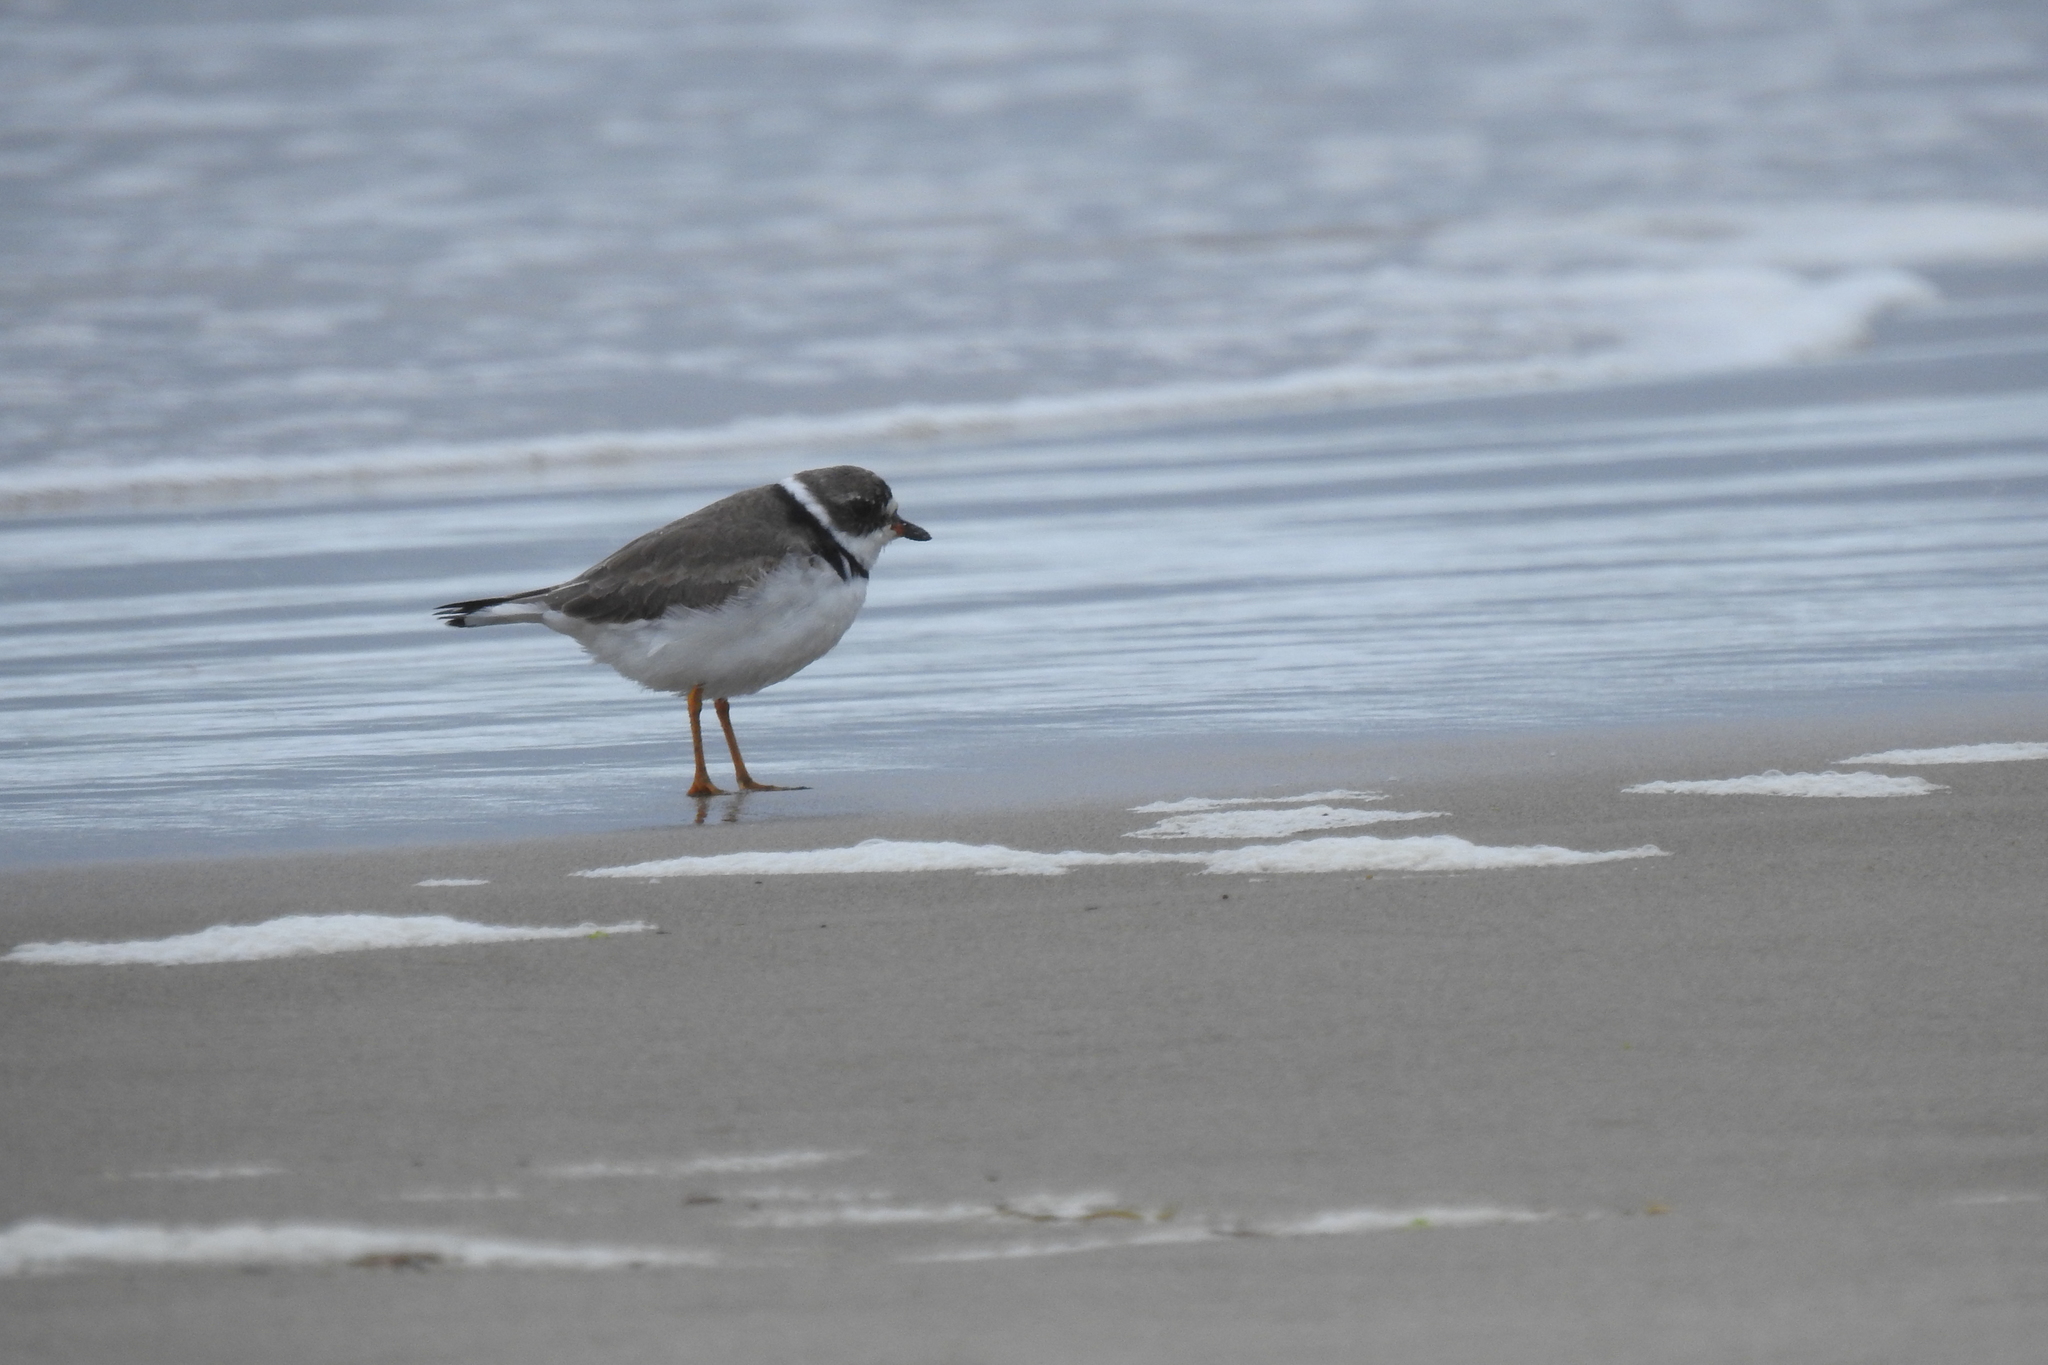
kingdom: Animalia
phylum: Chordata
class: Aves
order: Charadriiformes
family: Charadriidae
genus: Charadrius
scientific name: Charadrius semipalmatus
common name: Semipalmated plover
